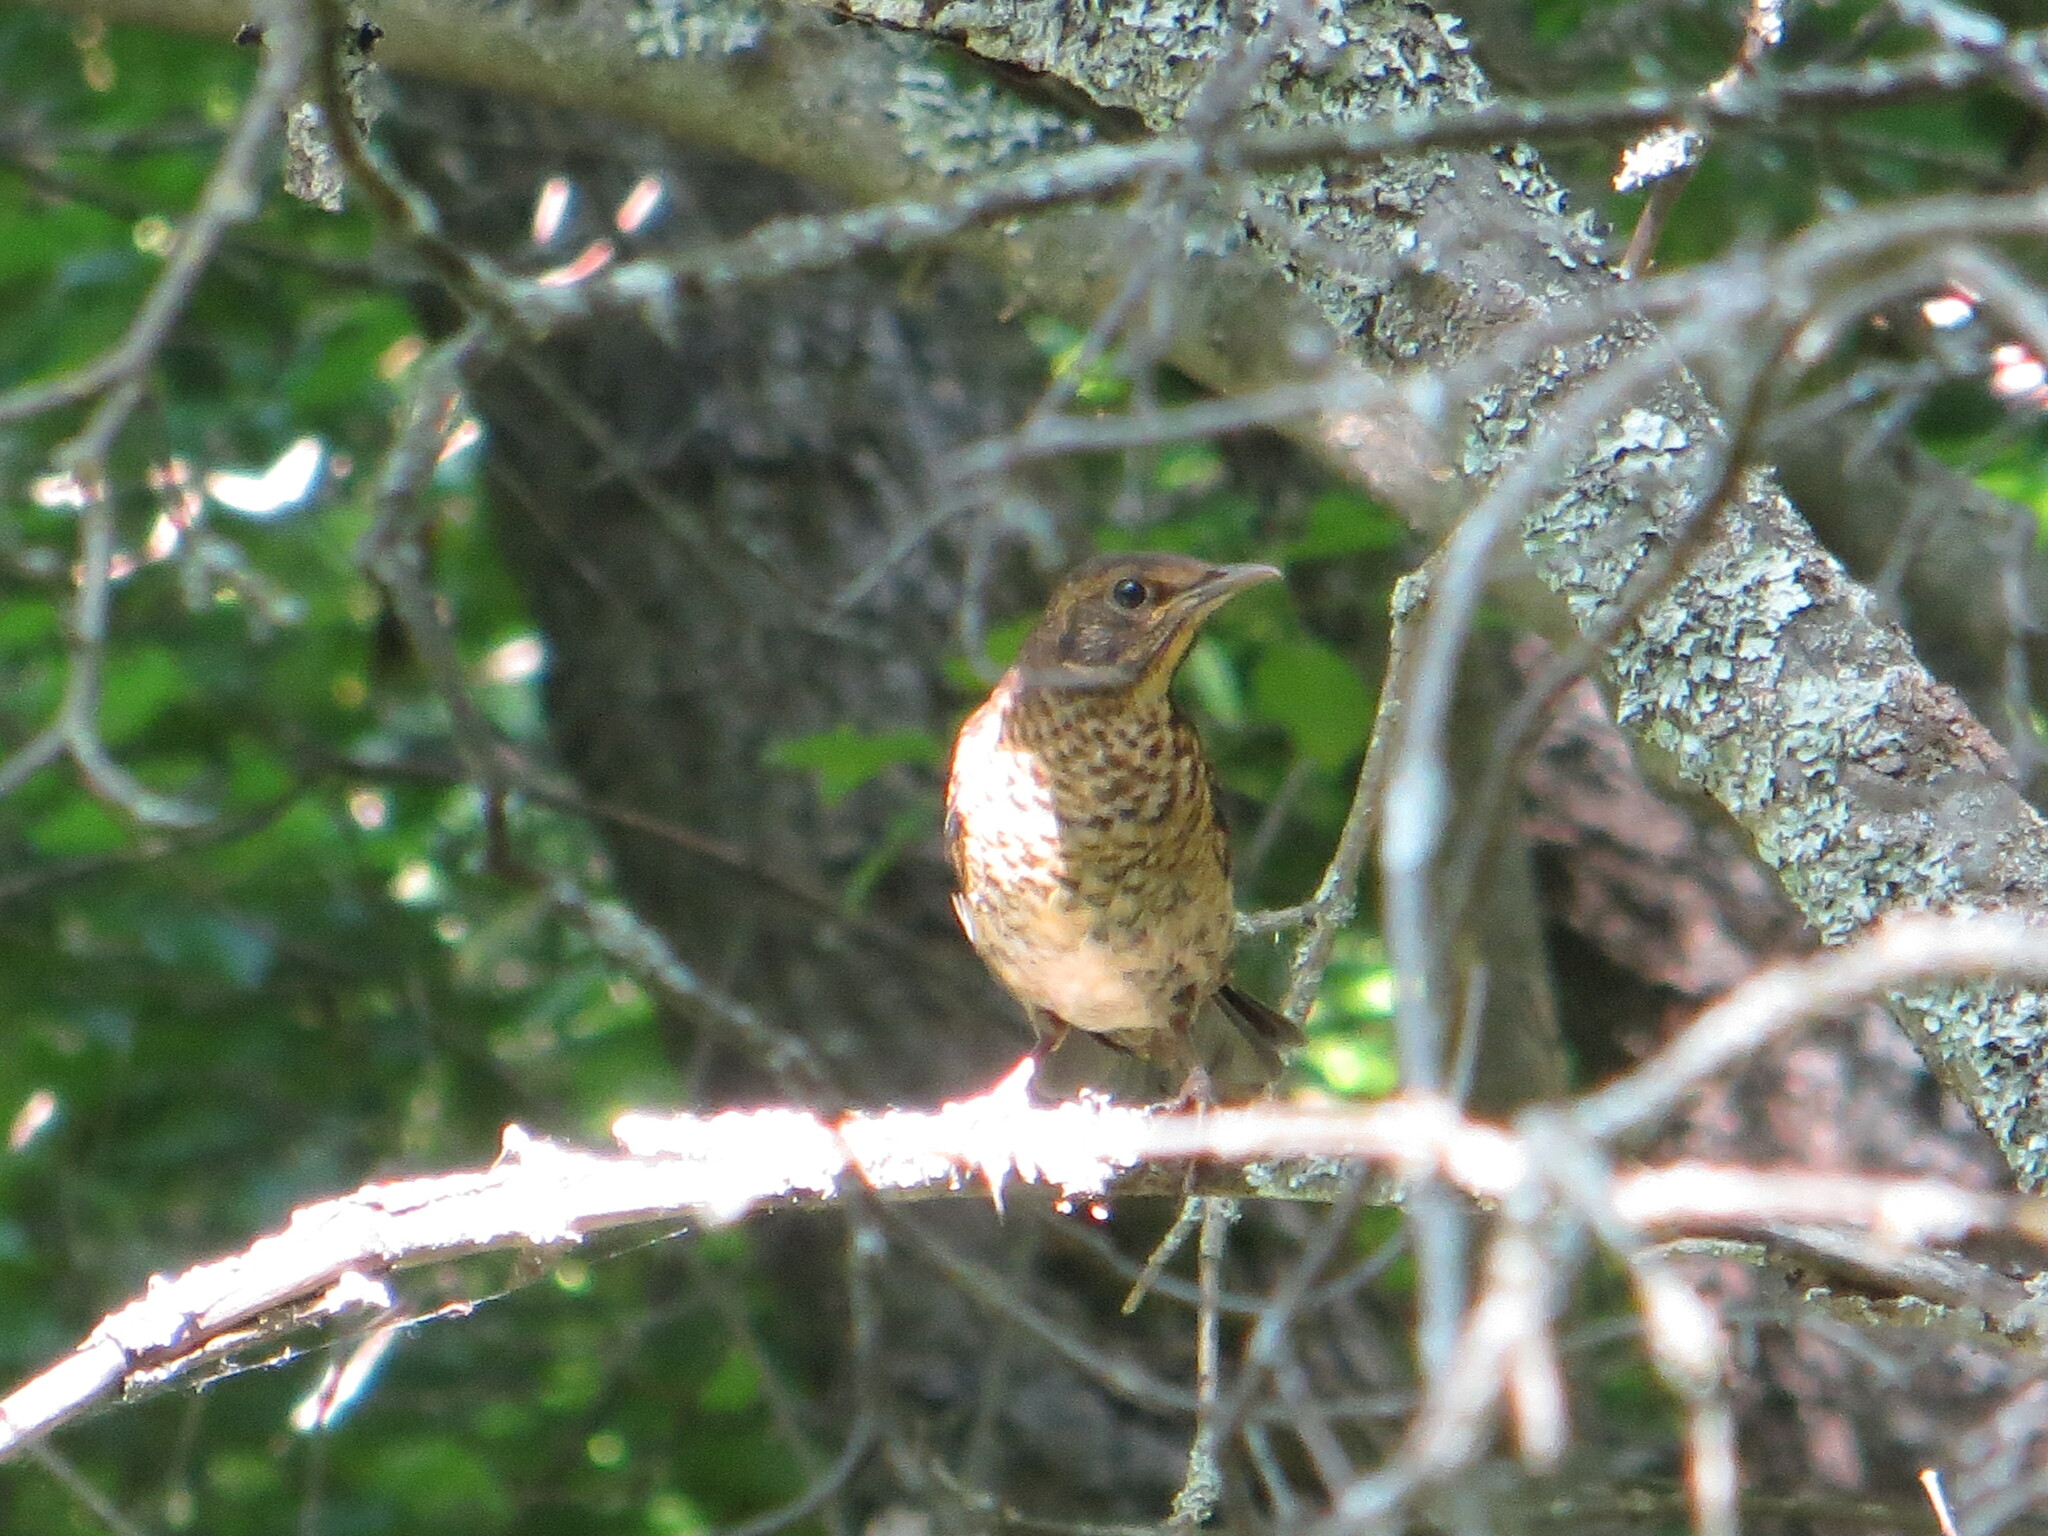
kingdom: Animalia
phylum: Chordata
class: Aves
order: Passeriformes
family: Turdidae
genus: Turdus
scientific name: Turdus merula
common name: Common blackbird
